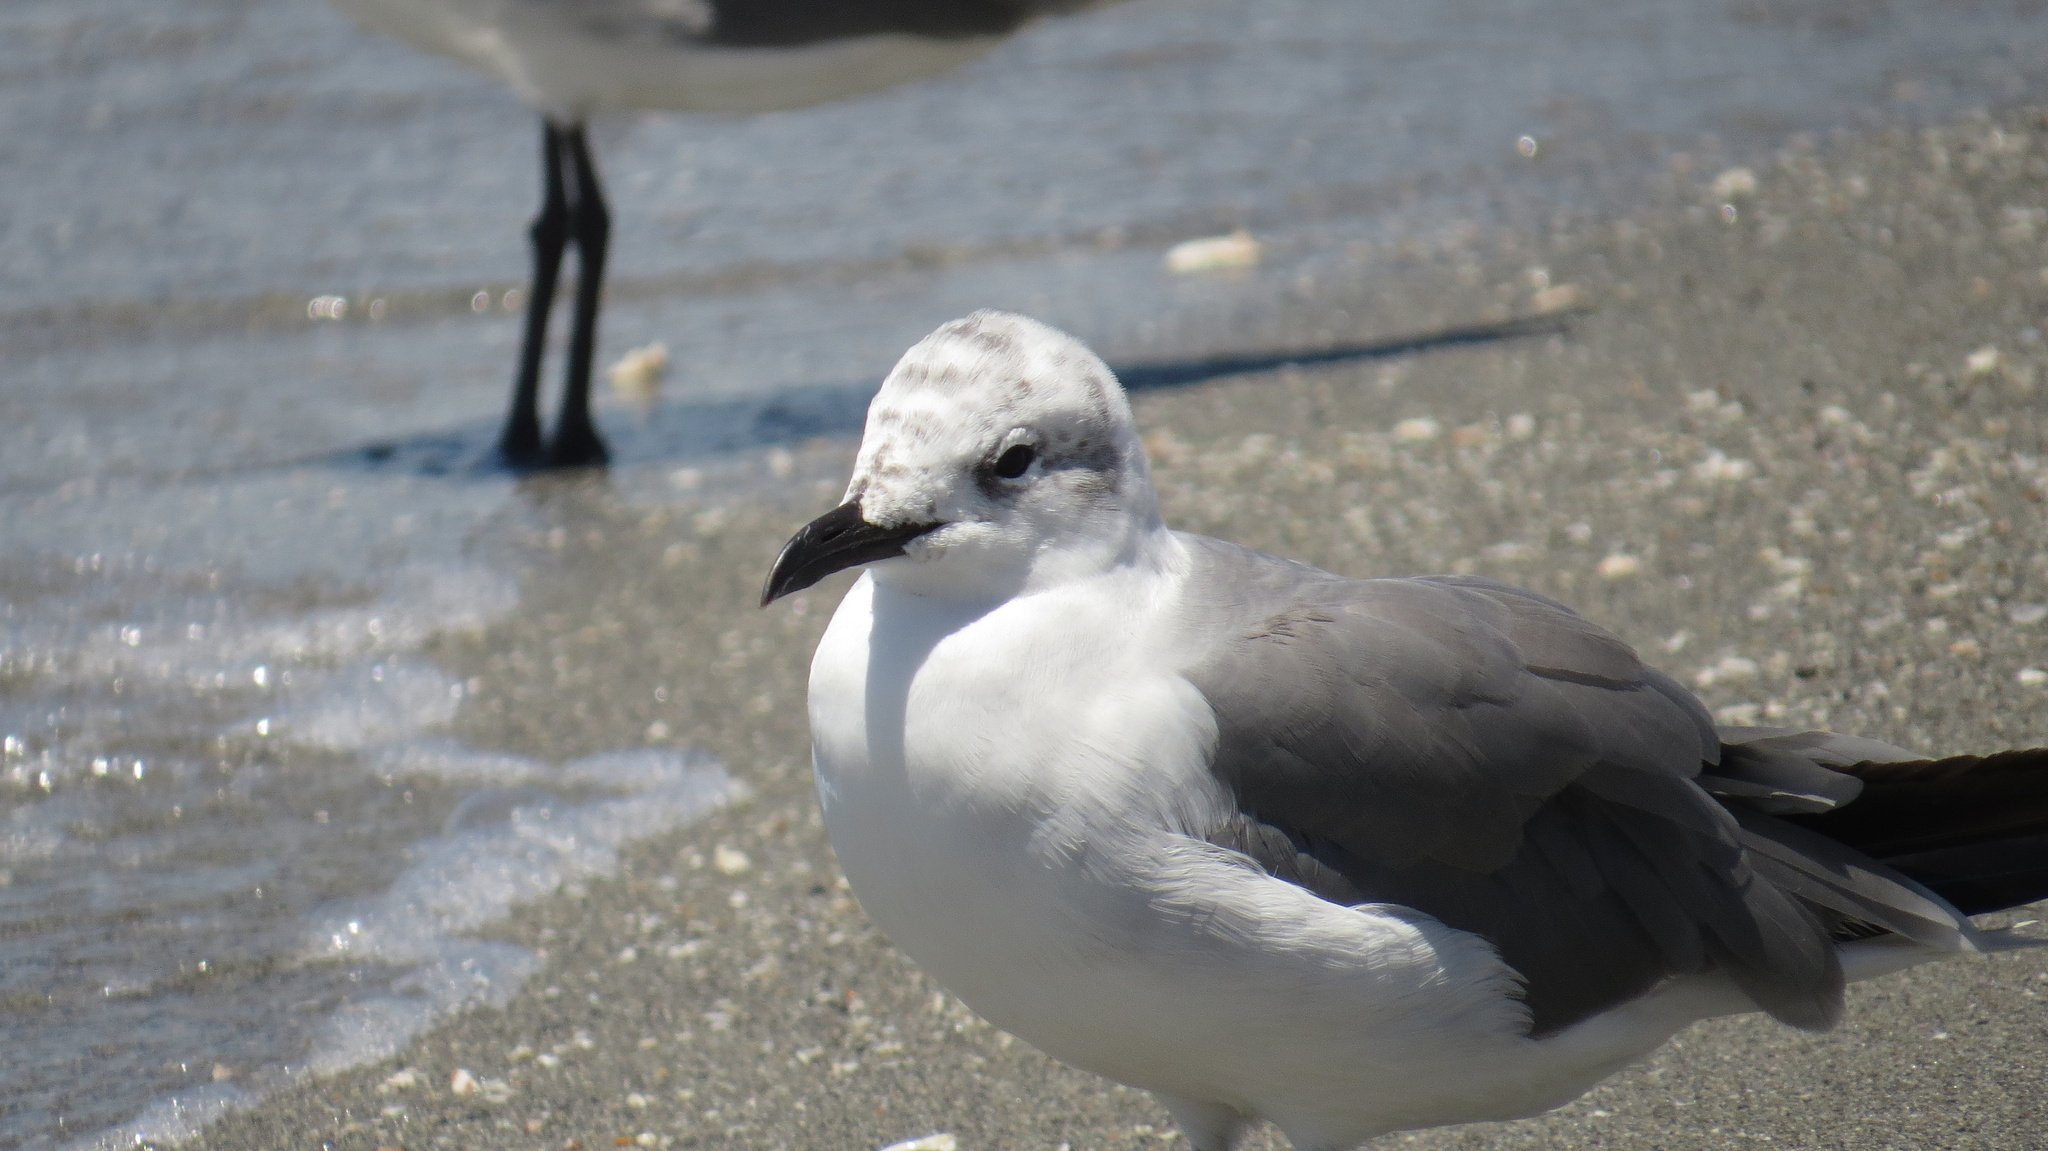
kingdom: Animalia
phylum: Chordata
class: Aves
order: Charadriiformes
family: Laridae
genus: Leucophaeus
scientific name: Leucophaeus atricilla
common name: Laughing gull
